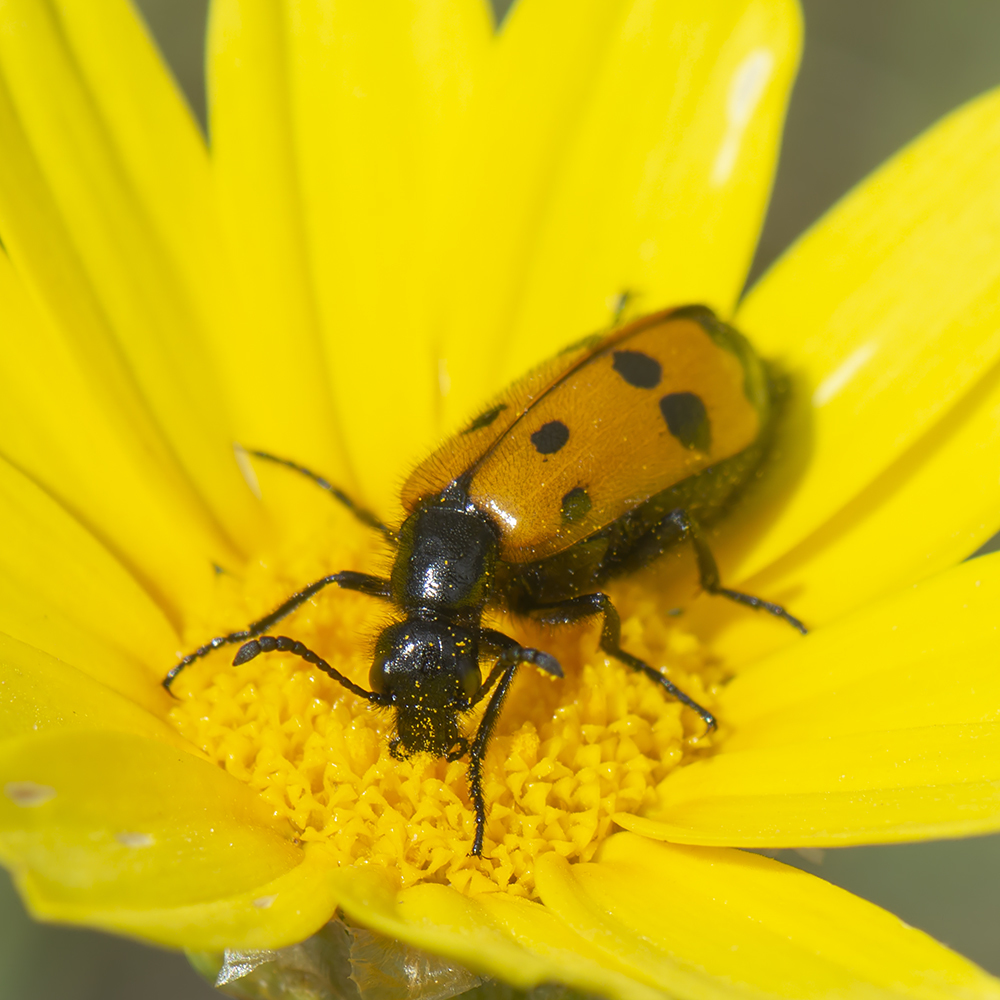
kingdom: Animalia
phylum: Arthropoda
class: Insecta
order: Coleoptera
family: Meloidae
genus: Mylabris
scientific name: Mylabris quadripunctata
